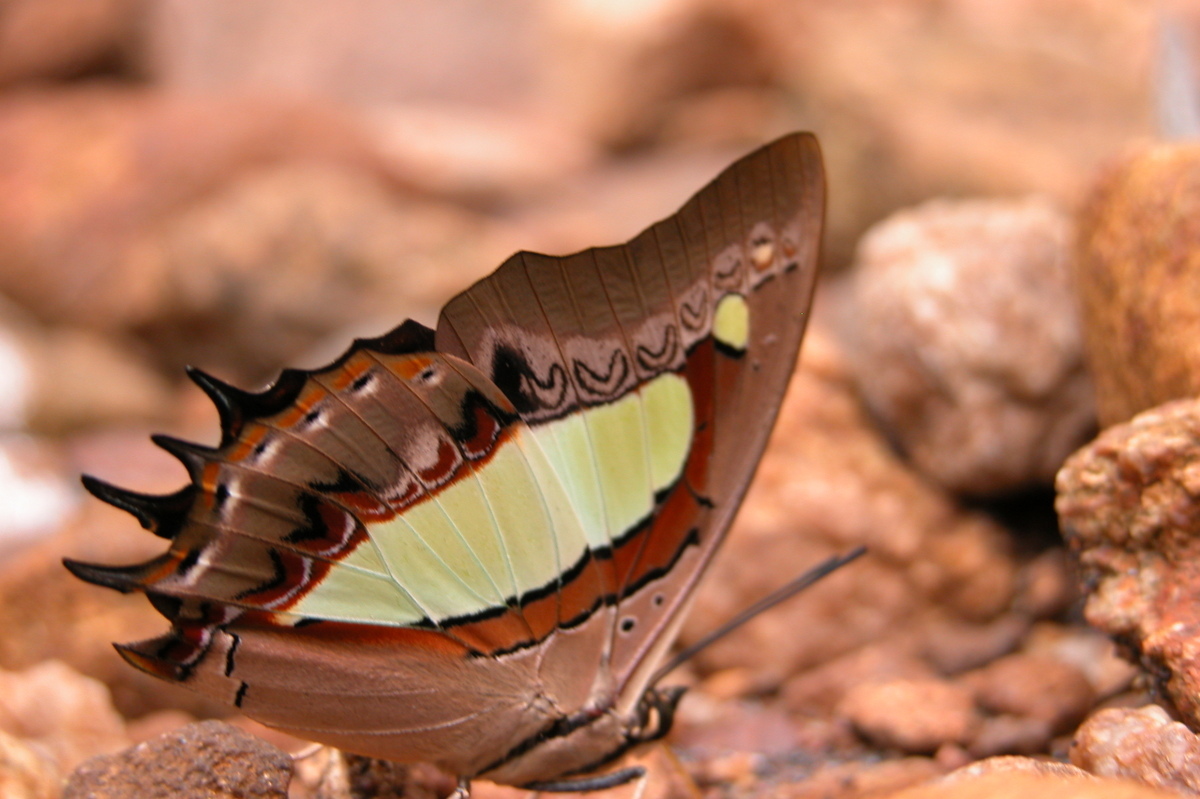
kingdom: Animalia
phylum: Arthropoda
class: Insecta
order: Lepidoptera
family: Nymphalidae
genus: Polyura
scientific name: Polyura
